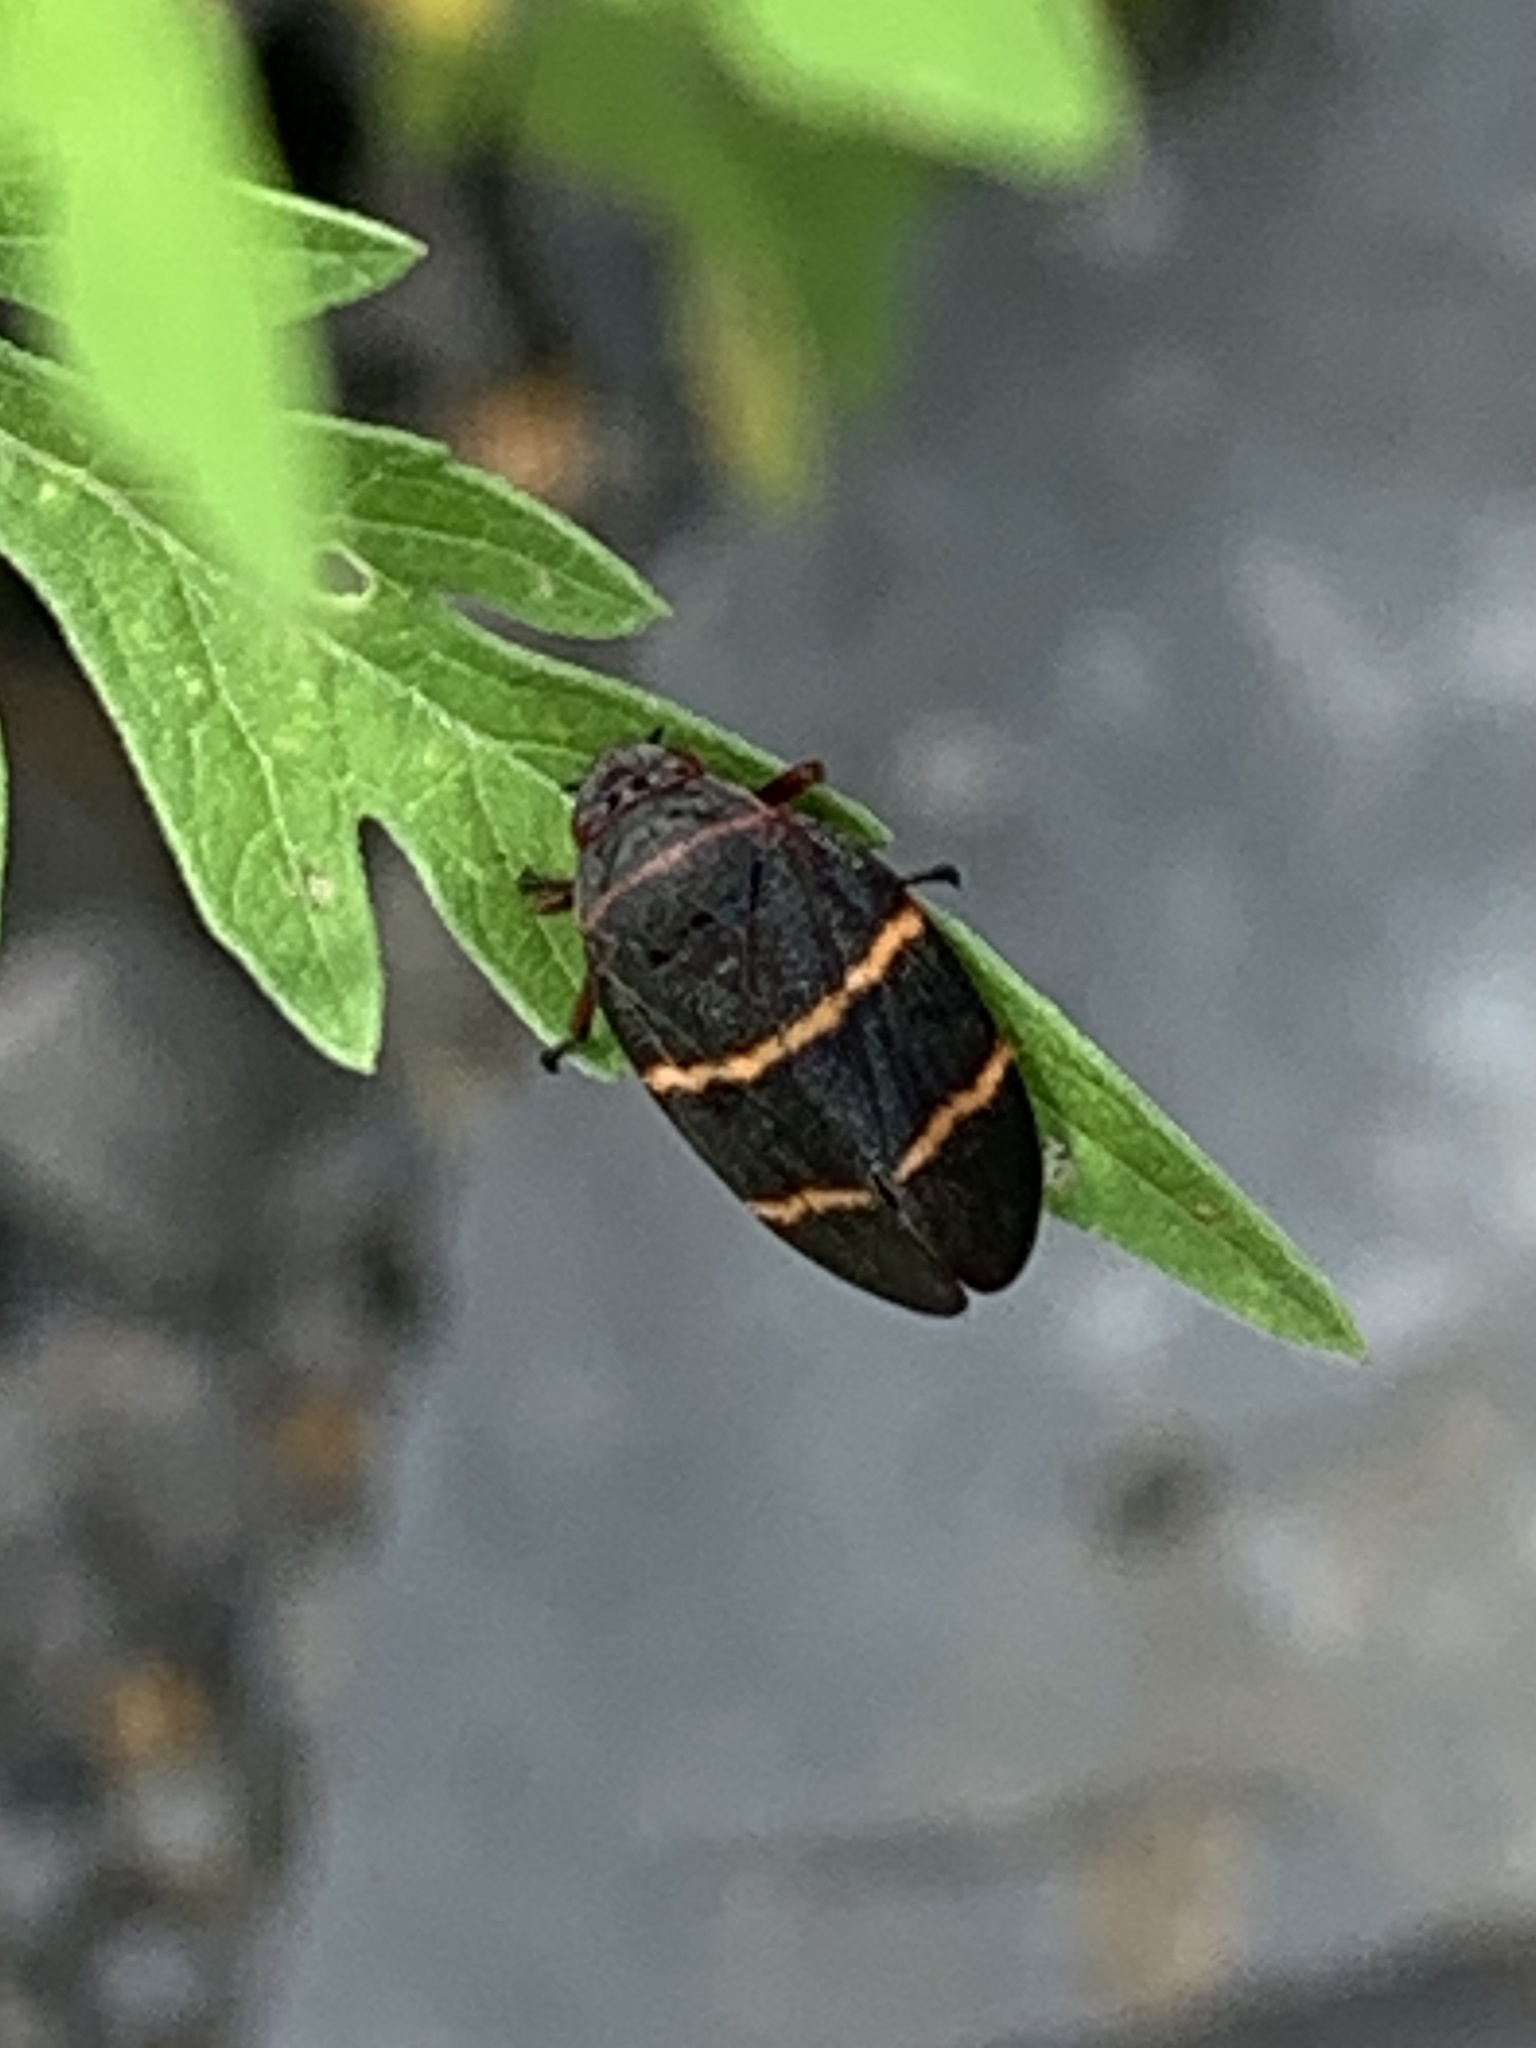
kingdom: Animalia
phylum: Arthropoda
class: Insecta
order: Hemiptera
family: Cercopidae
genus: Prosapia
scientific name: Prosapia bicincta
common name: Twolined spittlebug
